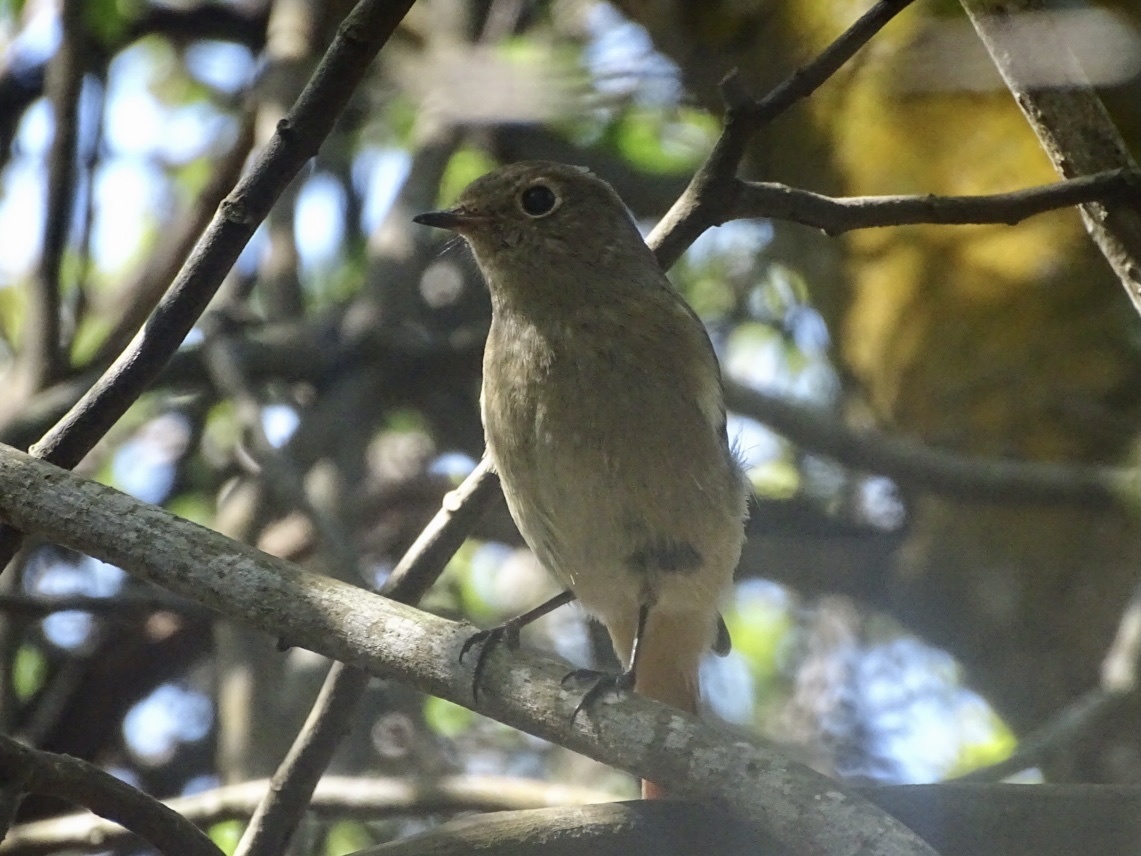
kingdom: Animalia
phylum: Chordata
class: Aves
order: Passeriformes
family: Muscicapidae
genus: Phoenicurus
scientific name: Phoenicurus auroreus
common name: Daurian redstart
